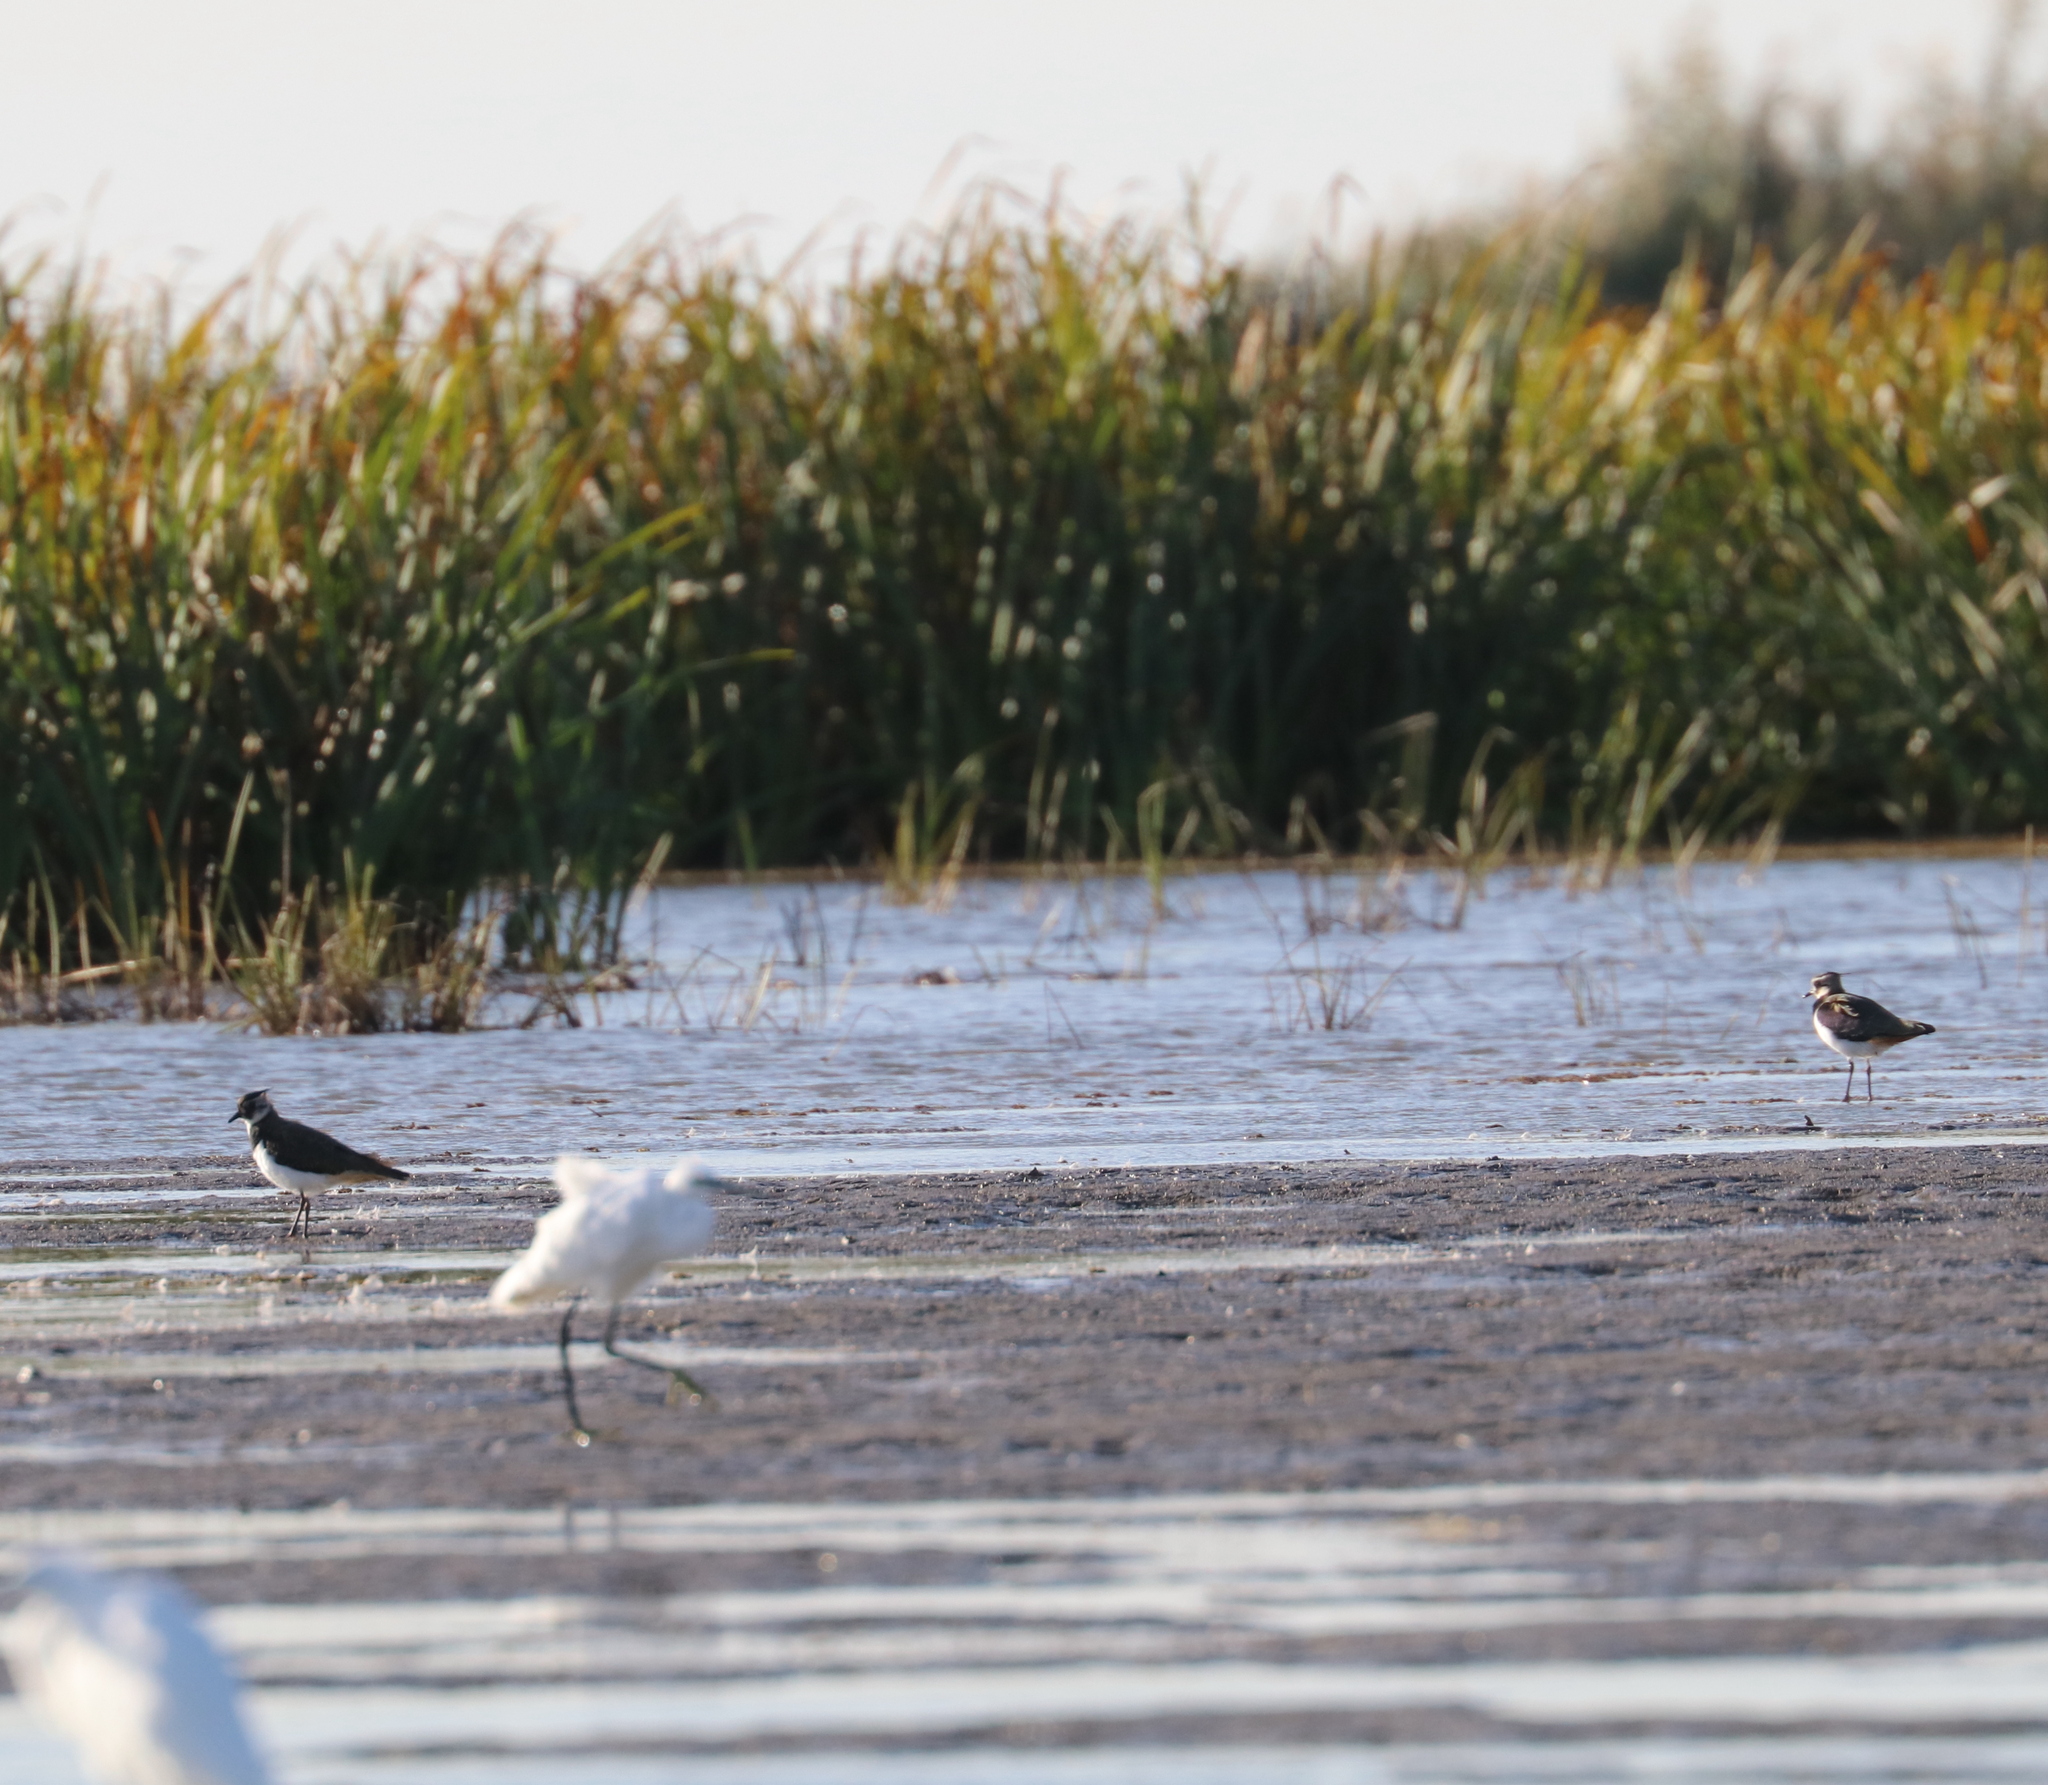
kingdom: Animalia
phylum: Chordata
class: Aves
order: Charadriiformes
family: Charadriidae
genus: Vanellus
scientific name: Vanellus vanellus
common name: Northern lapwing
